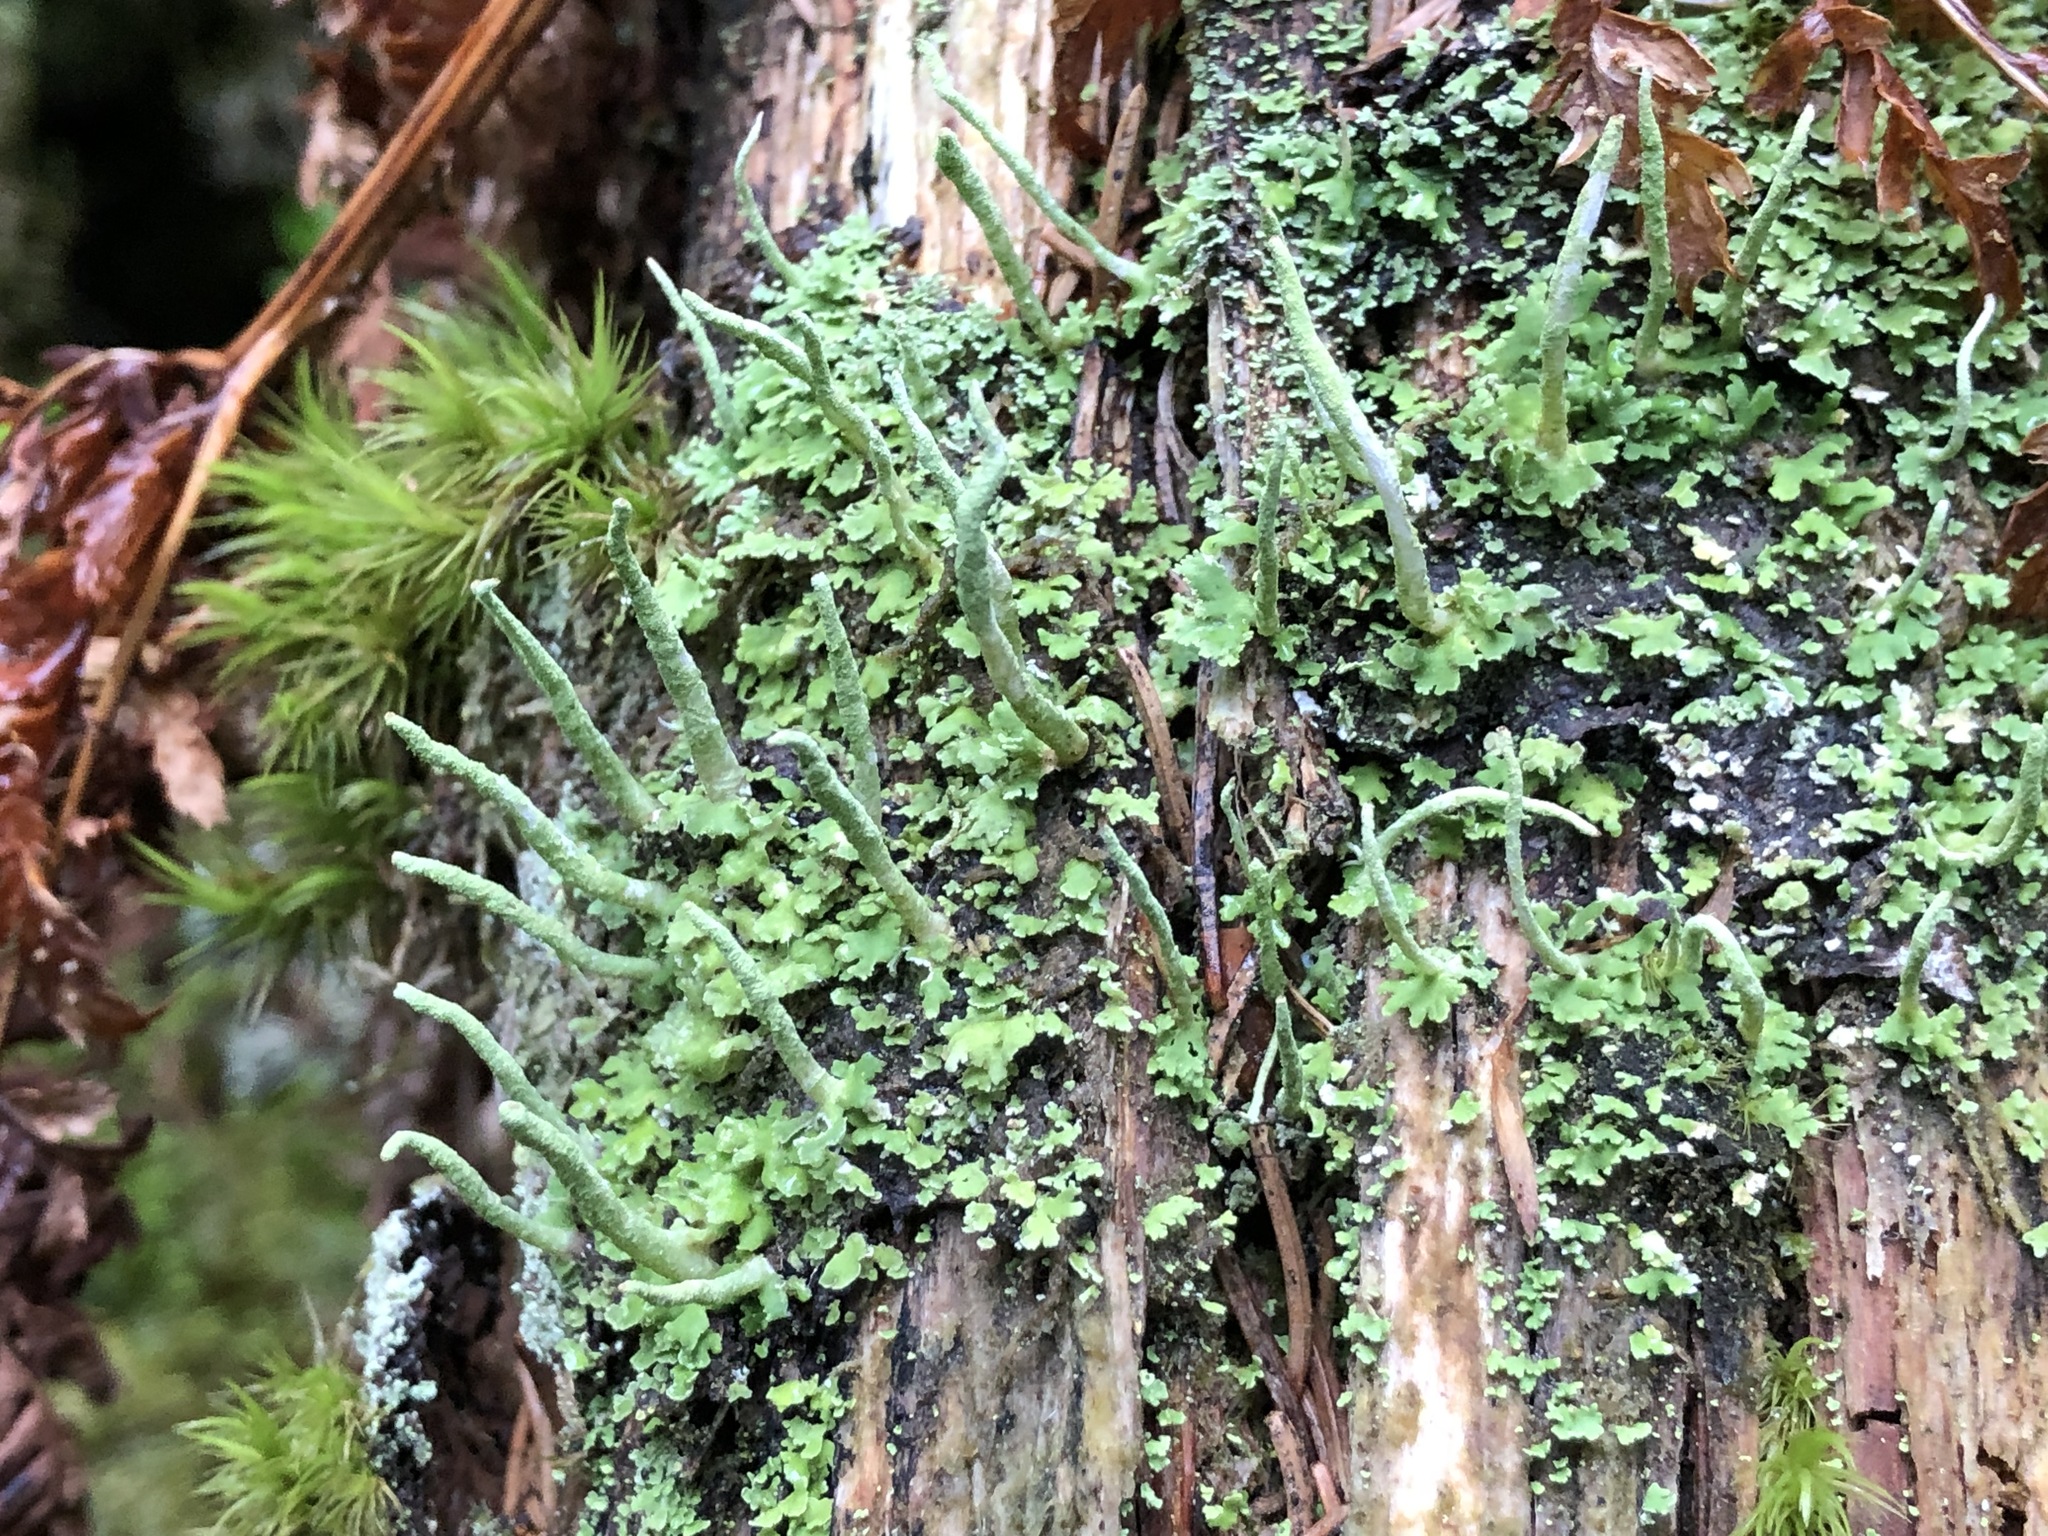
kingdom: Fungi
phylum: Ascomycota
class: Lecanoromycetes
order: Lecanorales
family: Cladoniaceae
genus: Cladonia
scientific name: Cladonia ochrochlora
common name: Smooth-footed powderhorn
